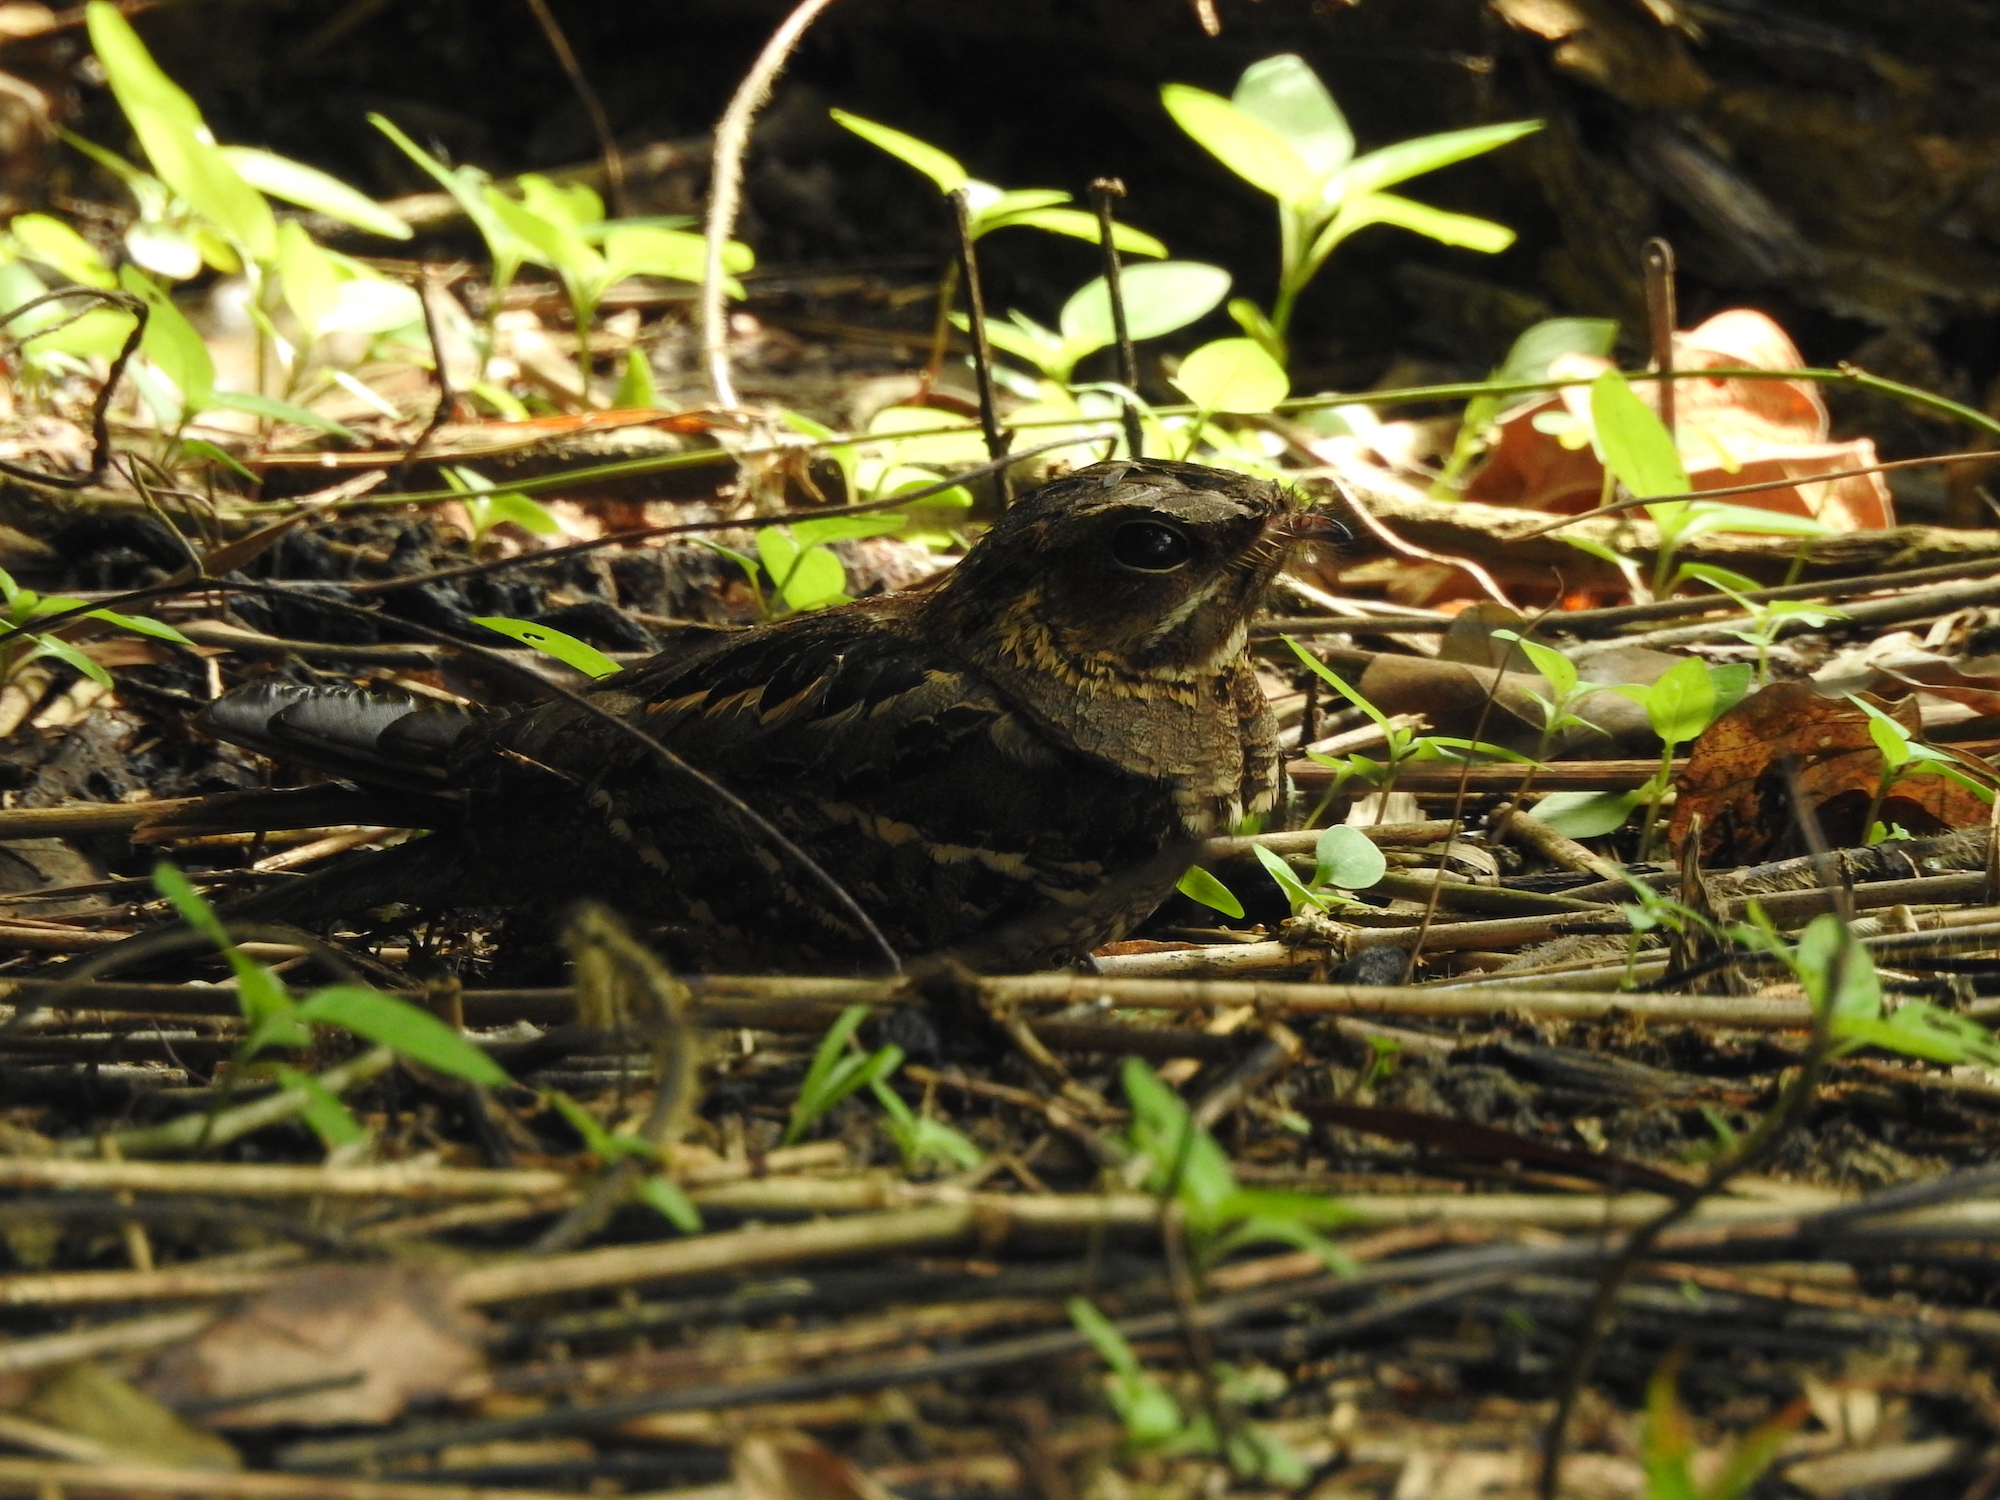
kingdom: Animalia
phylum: Chordata
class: Aves
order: Caprimulgiformes
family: Caprimulgidae
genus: Caprimulgus
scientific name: Caprimulgus macrurus
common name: Large-tailed nightjar
